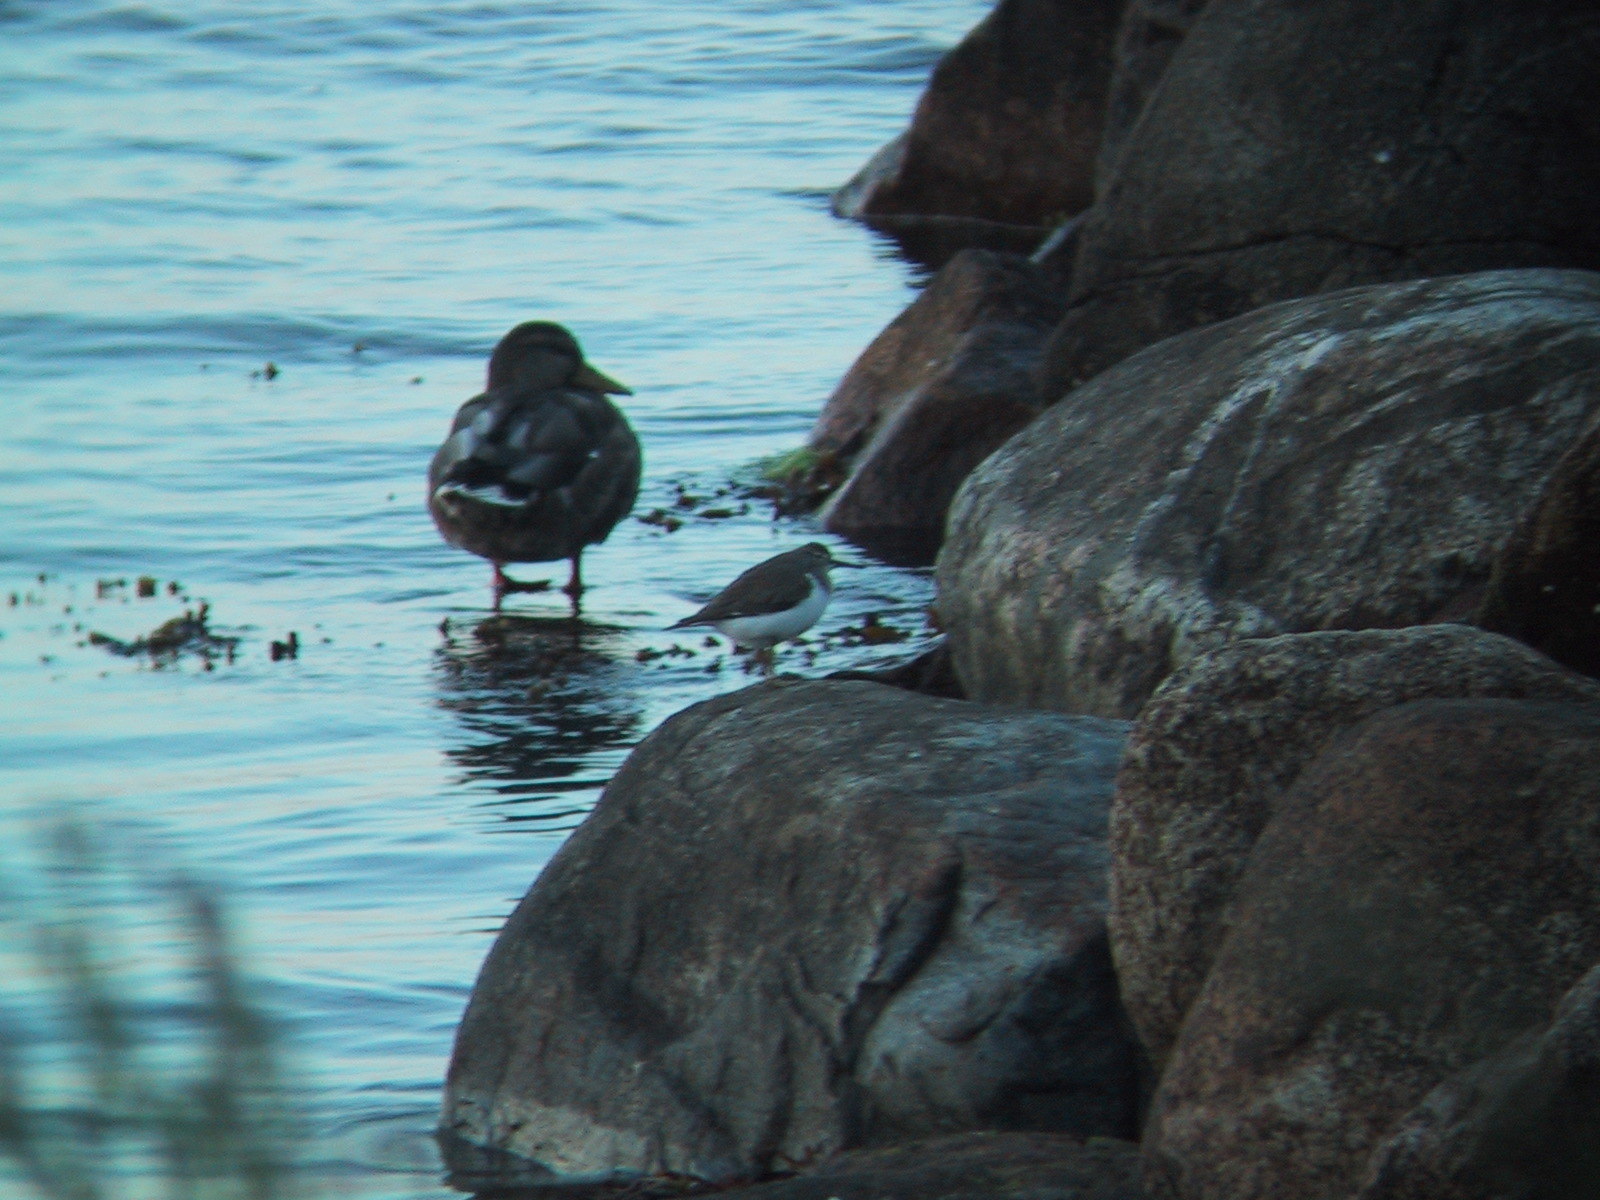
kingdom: Animalia
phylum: Chordata
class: Aves
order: Charadriiformes
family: Scolopacidae
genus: Actitis
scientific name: Actitis hypoleucos
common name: Common sandpiper
